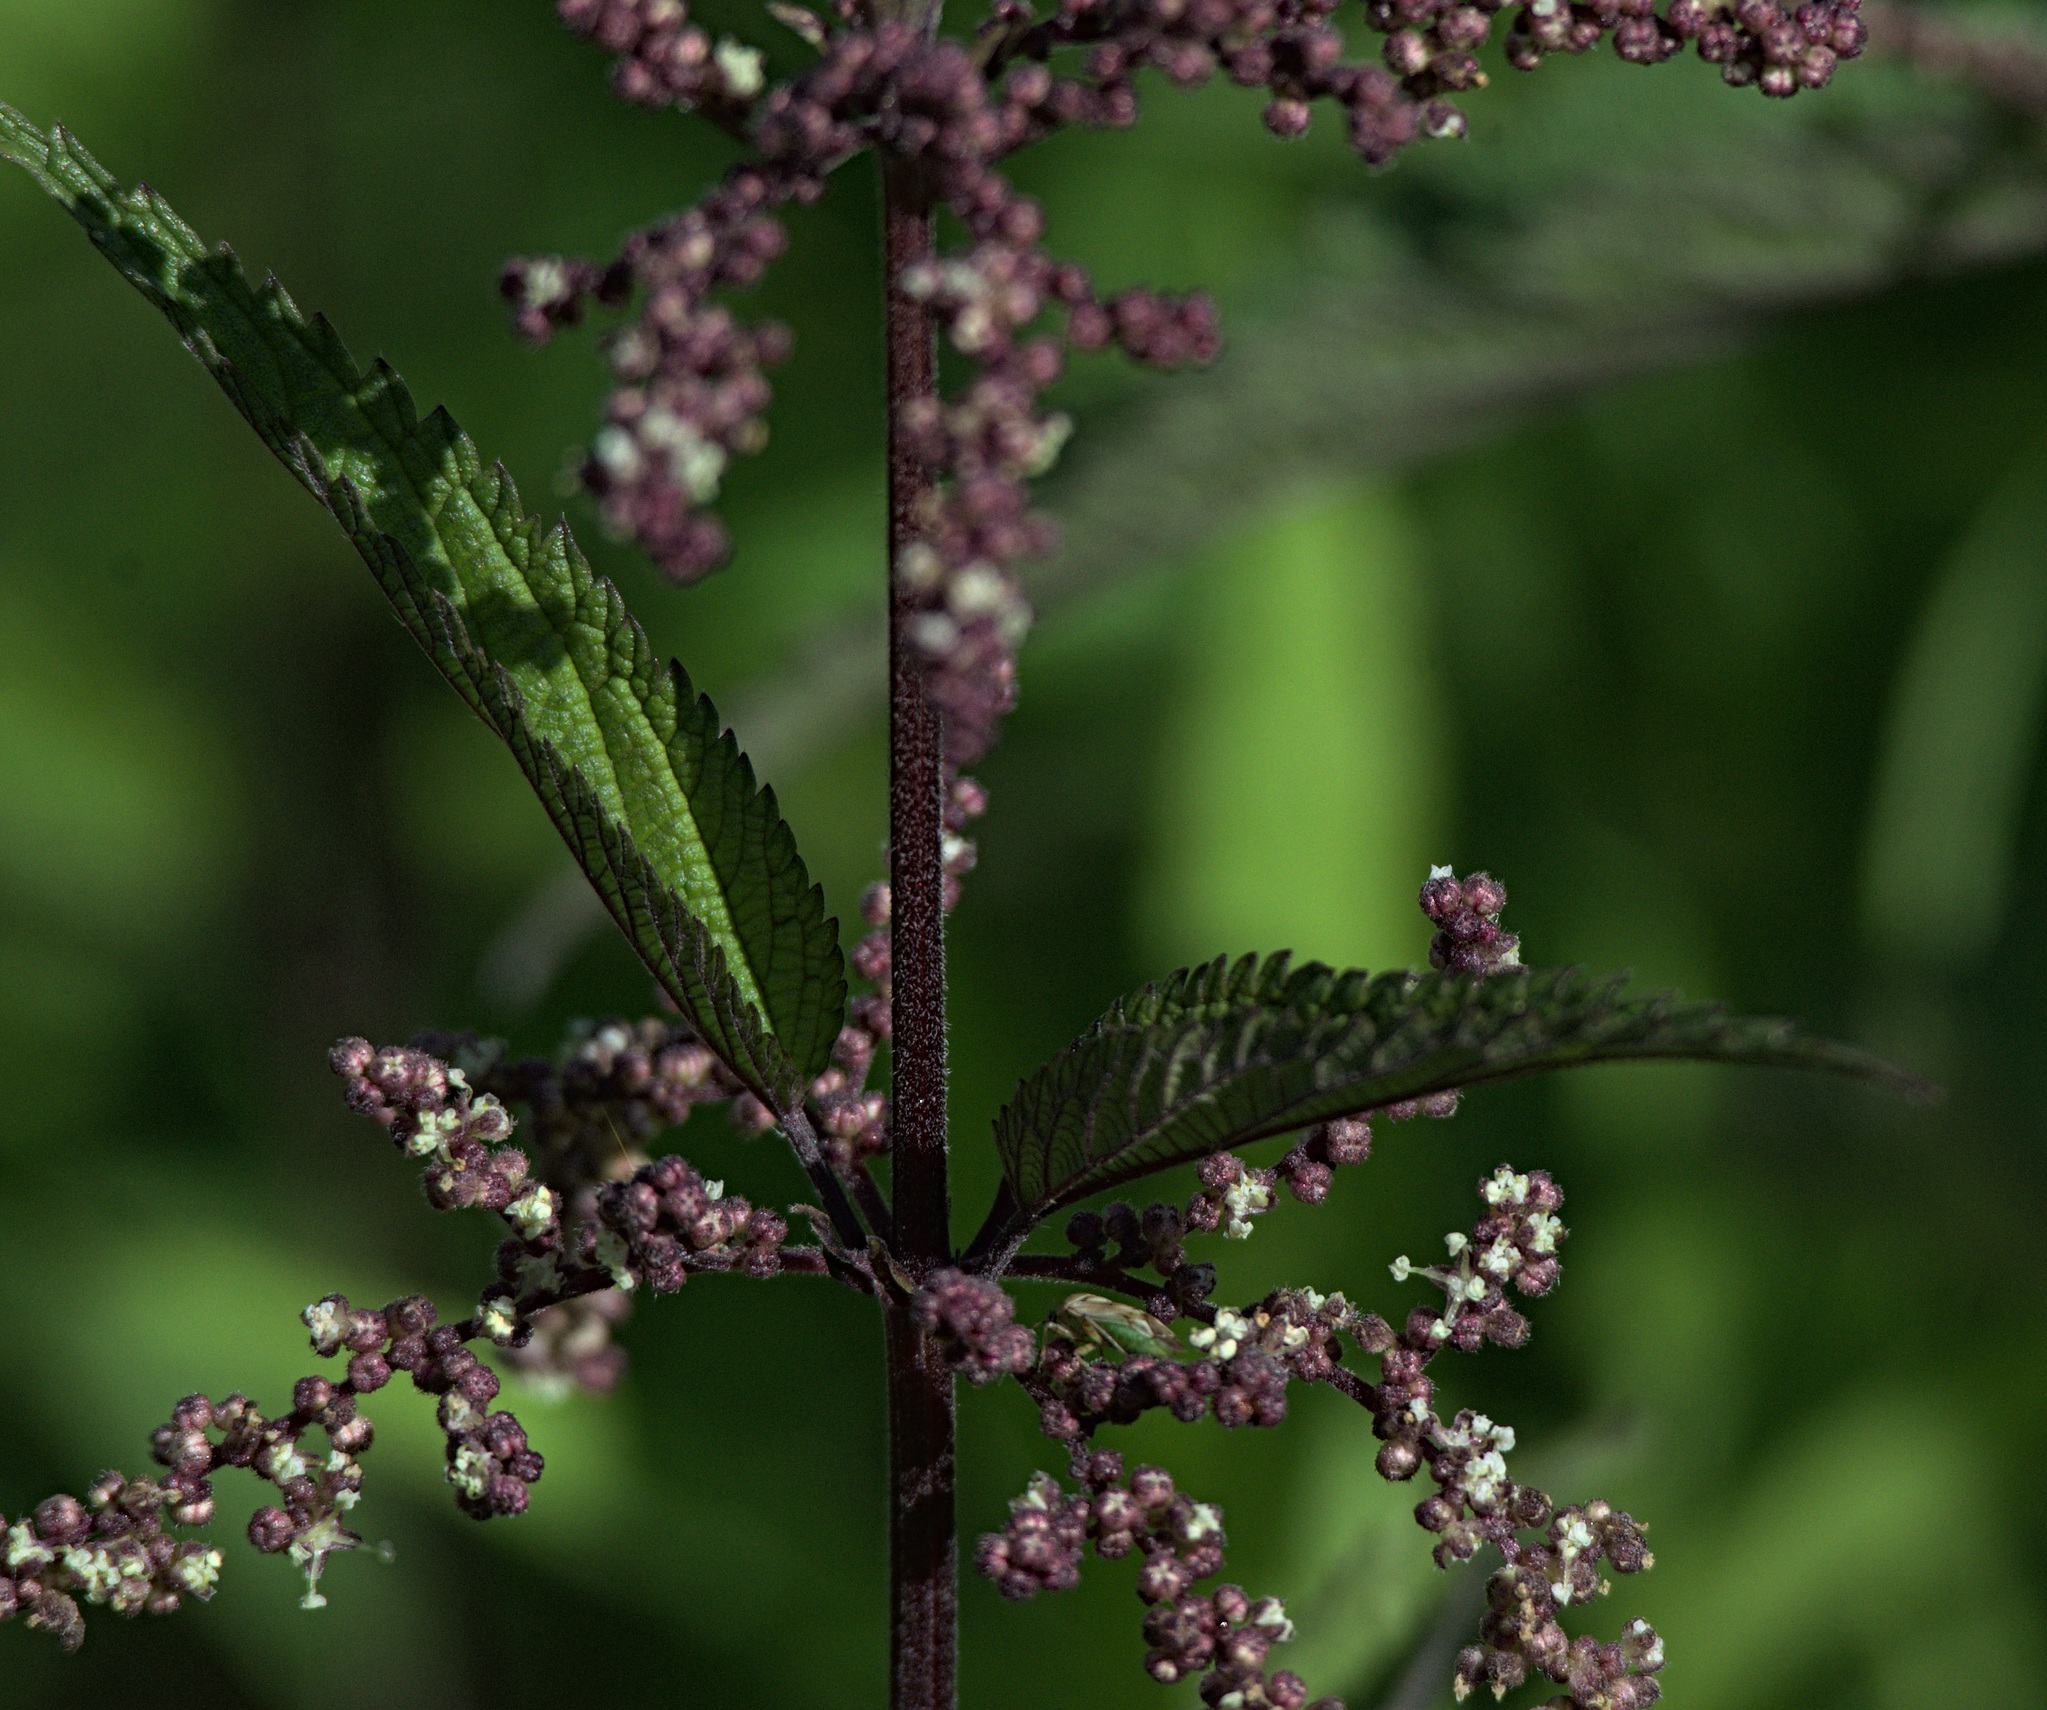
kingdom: Plantae
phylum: Tracheophyta
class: Magnoliopsida
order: Rosales
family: Urticaceae
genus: Urtica
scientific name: Urtica galeopsifolia
